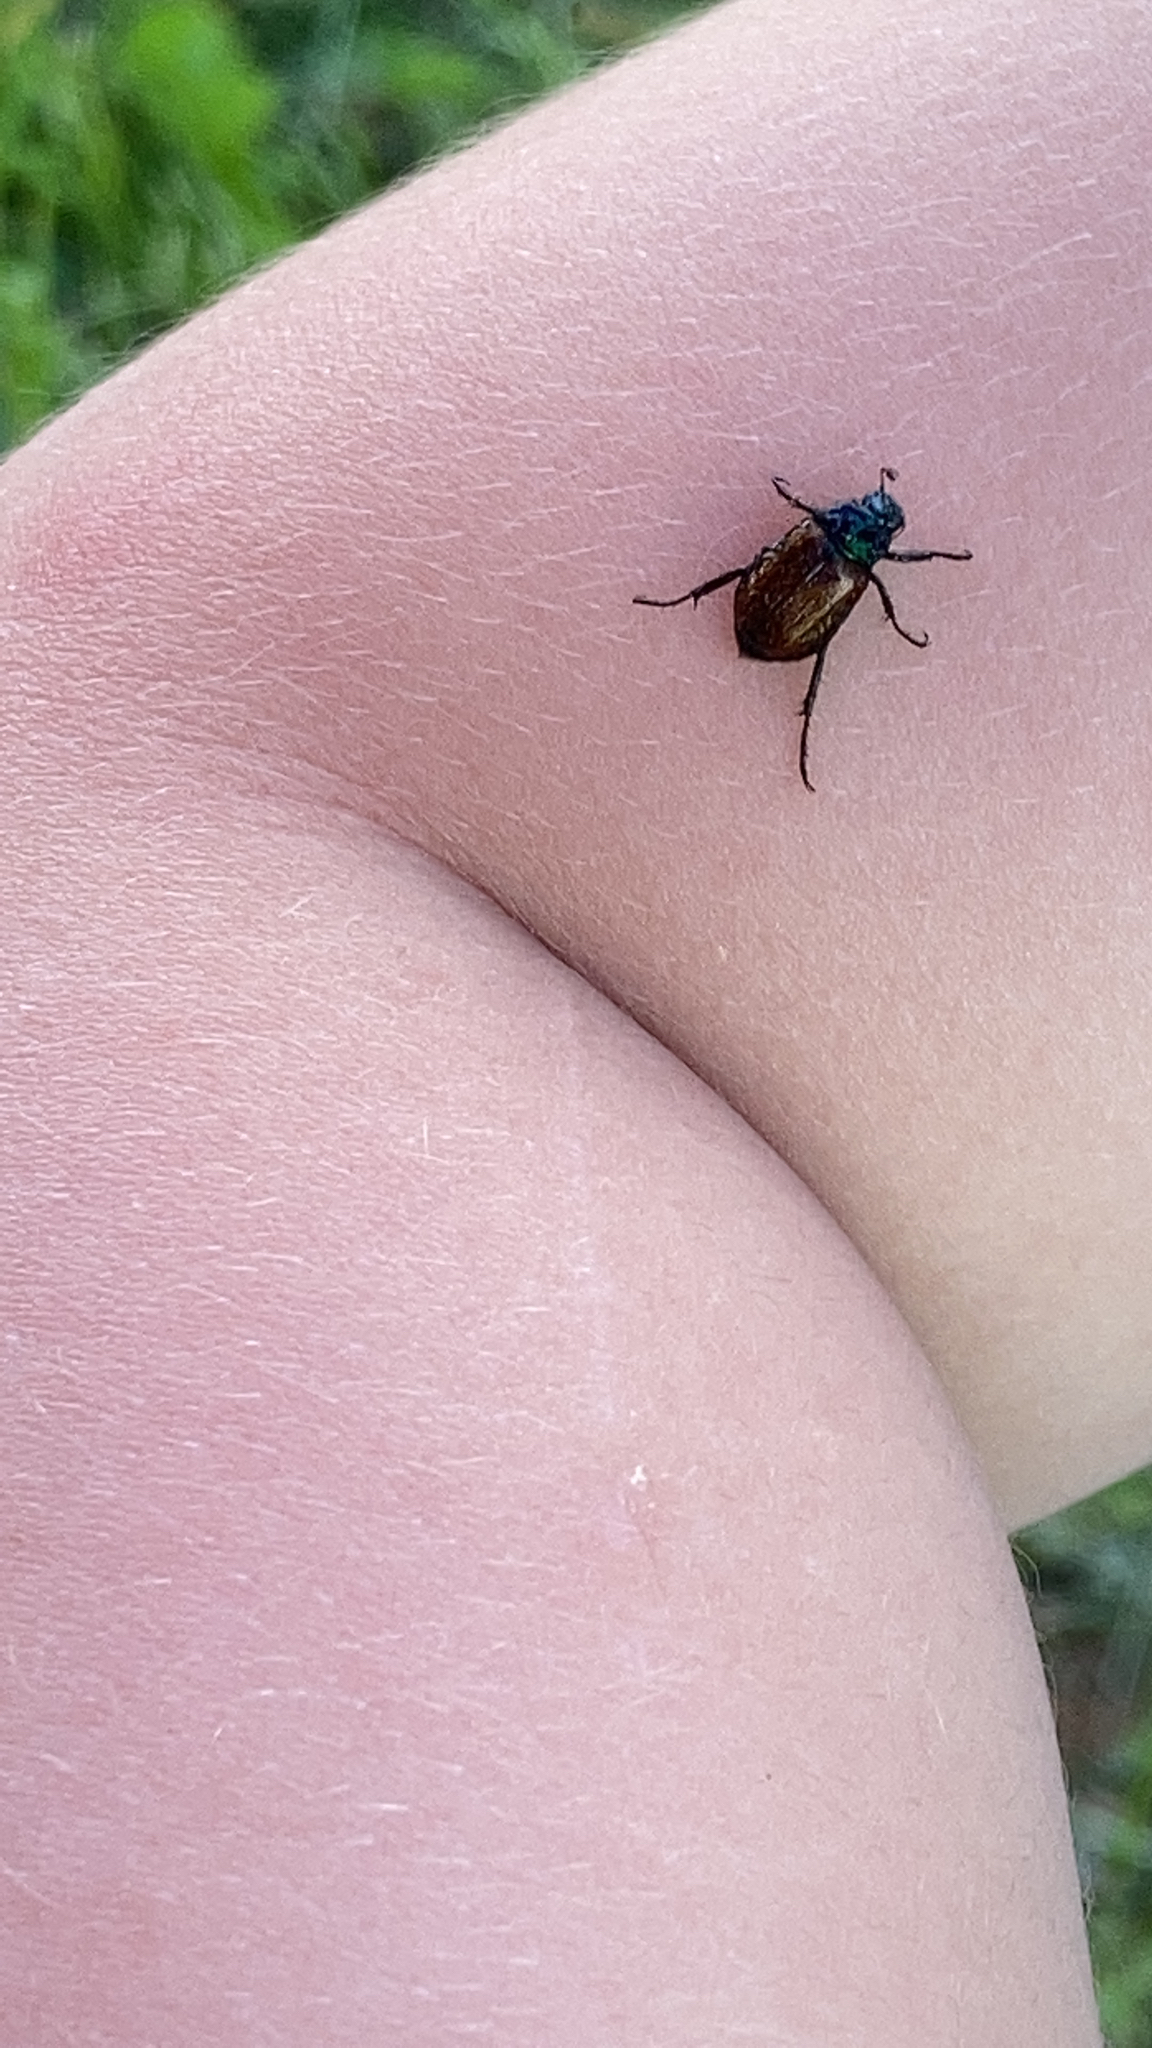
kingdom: Animalia
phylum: Arthropoda
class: Insecta
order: Coleoptera
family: Scarabaeidae
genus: Phyllopertha
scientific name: Phyllopertha horticola
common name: Garden chafer
